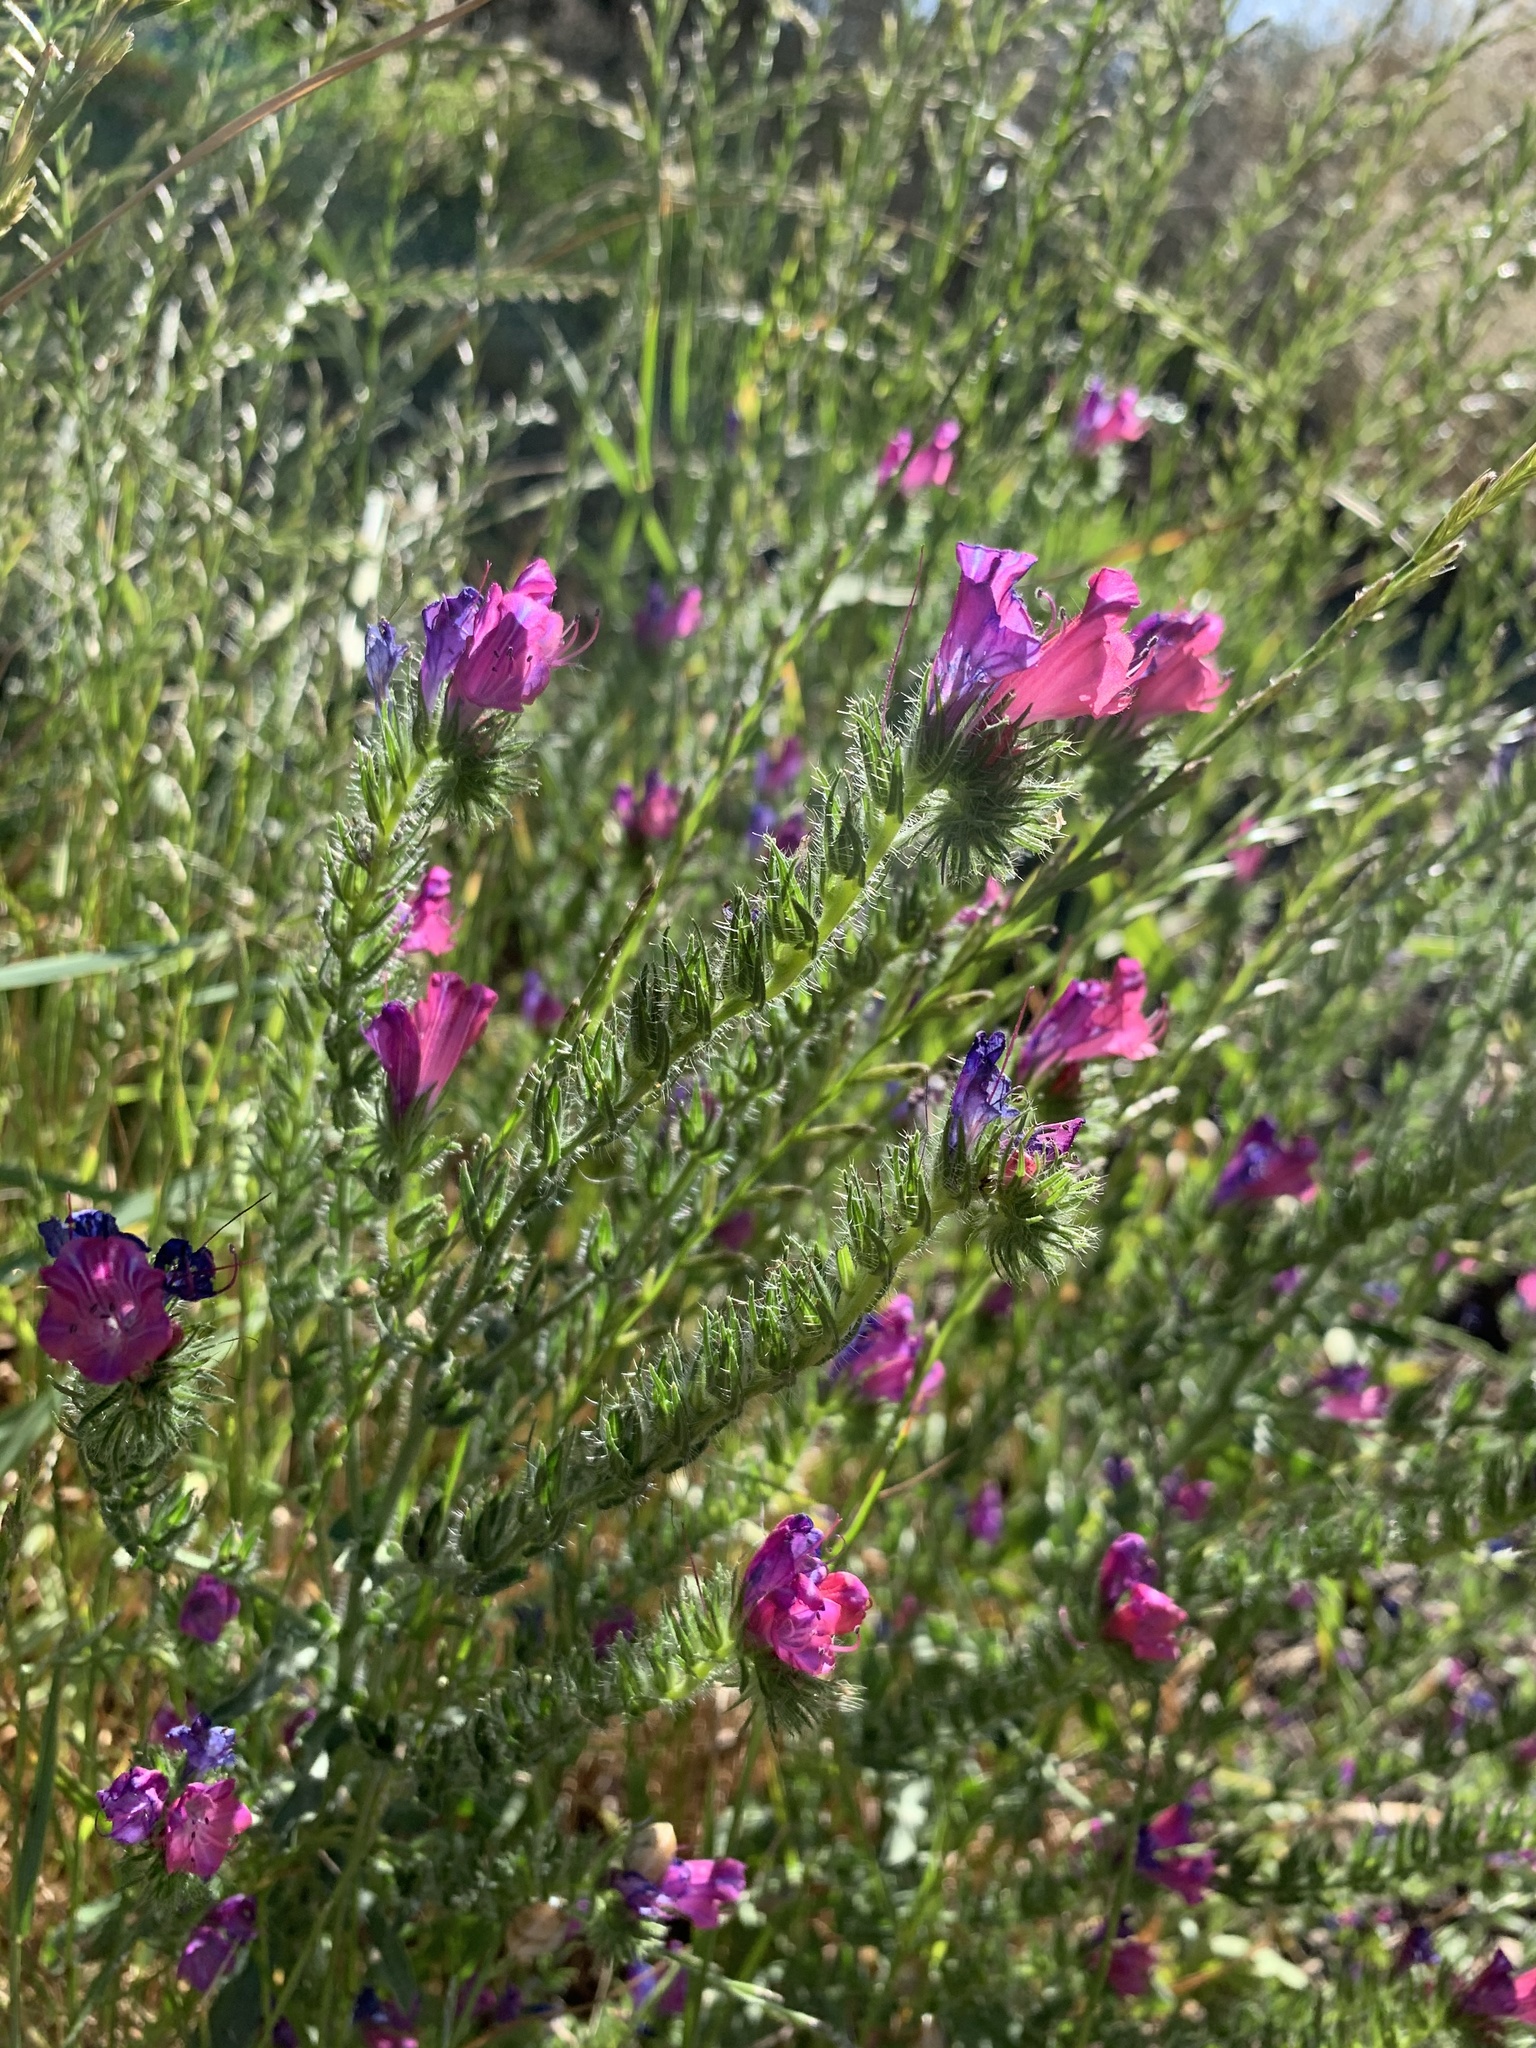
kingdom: Plantae
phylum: Tracheophyta
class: Magnoliopsida
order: Boraginales
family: Boraginaceae
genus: Echium
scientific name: Echium plantagineum
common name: Purple viper's-bugloss
